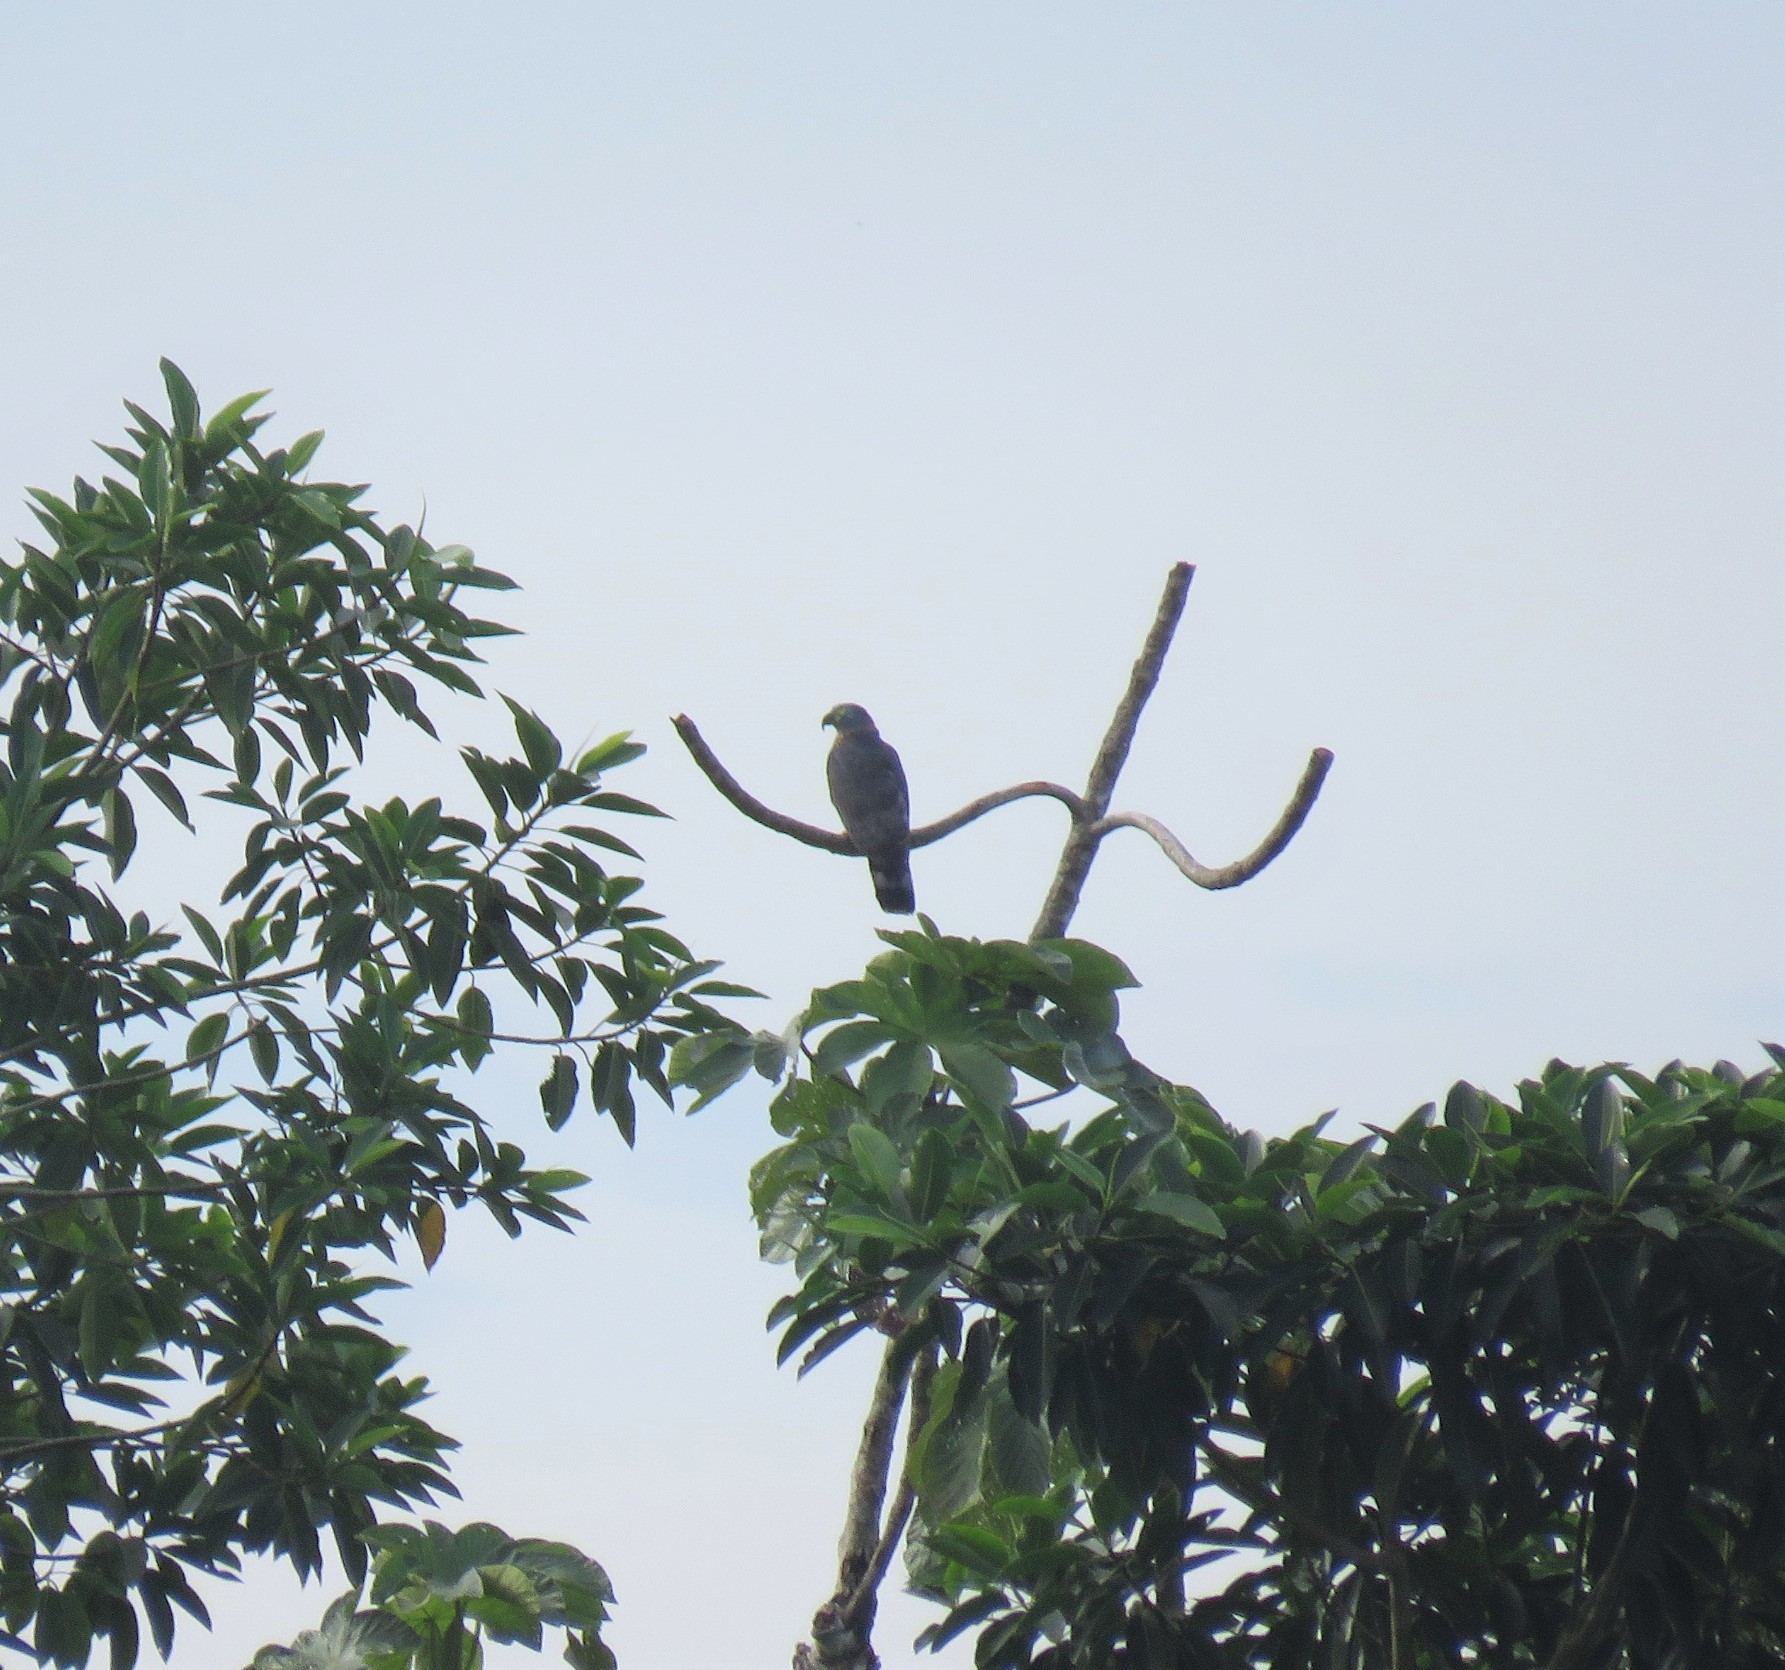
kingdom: Animalia
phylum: Chordata
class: Aves
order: Accipitriformes
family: Accipitridae
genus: Chondrohierax
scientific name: Chondrohierax uncinatus
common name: Hook-billed kite
